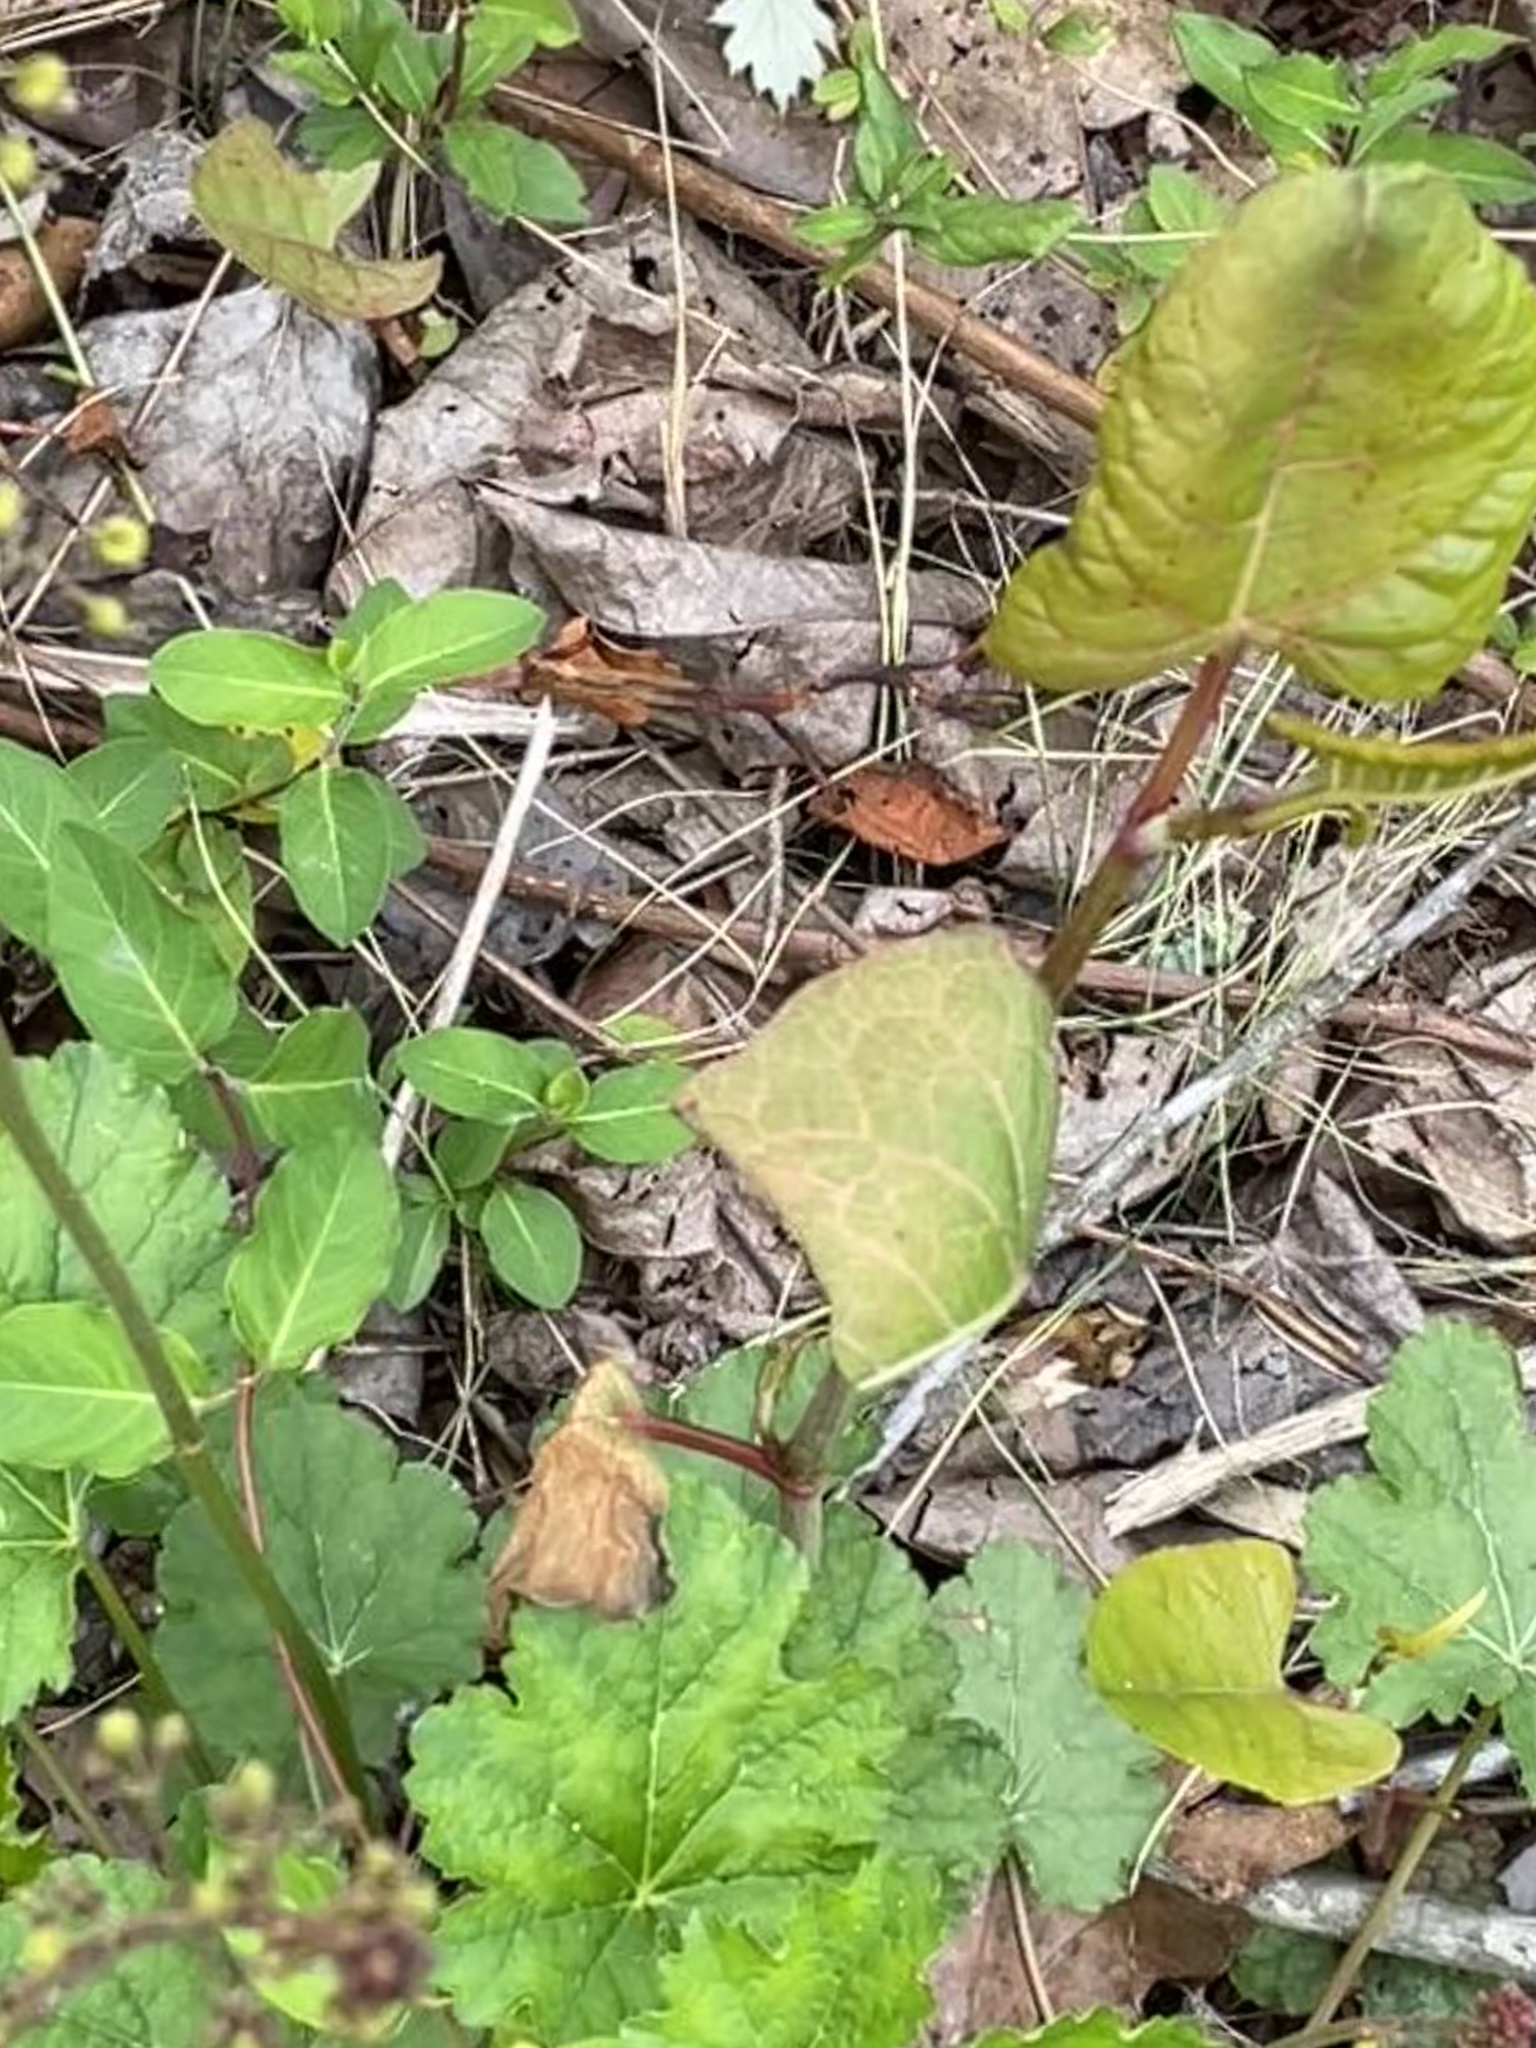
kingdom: Plantae
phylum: Tracheophyta
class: Magnoliopsida
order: Saxifragales
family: Saxifragaceae
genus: Heuchera
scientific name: Heuchera caroliniana
